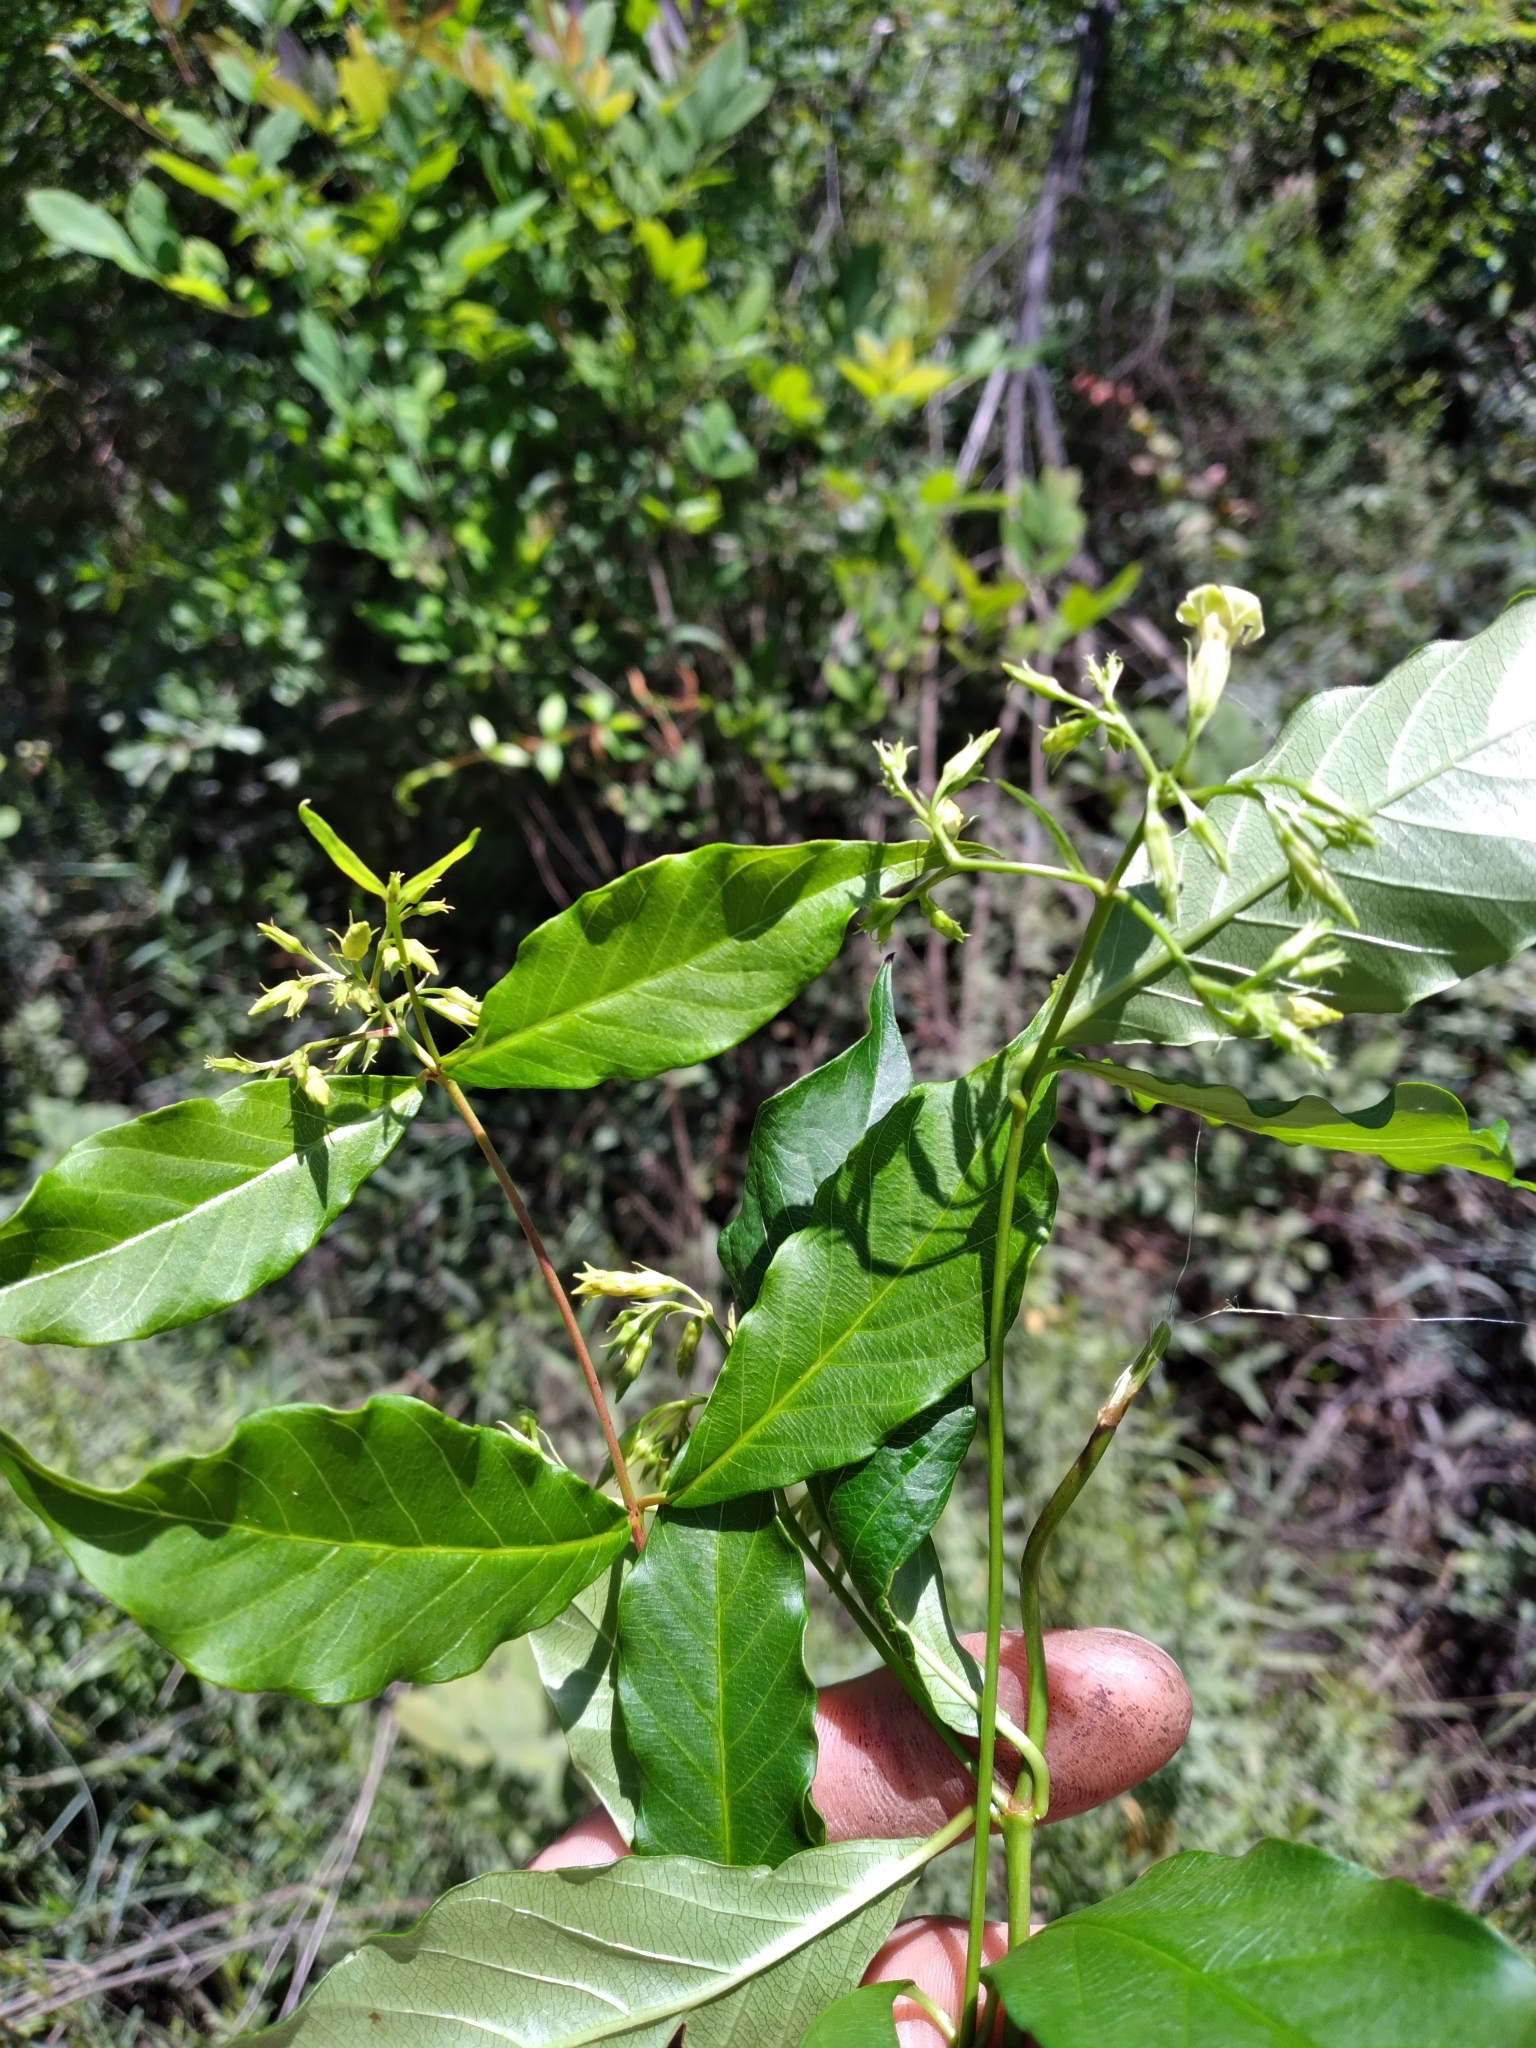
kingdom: Plantae
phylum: Tracheophyta
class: Magnoliopsida
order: Gentianales
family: Apocynaceae
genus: Thyrsanthella
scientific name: Thyrsanthella difformis
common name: Climbing dogbane
